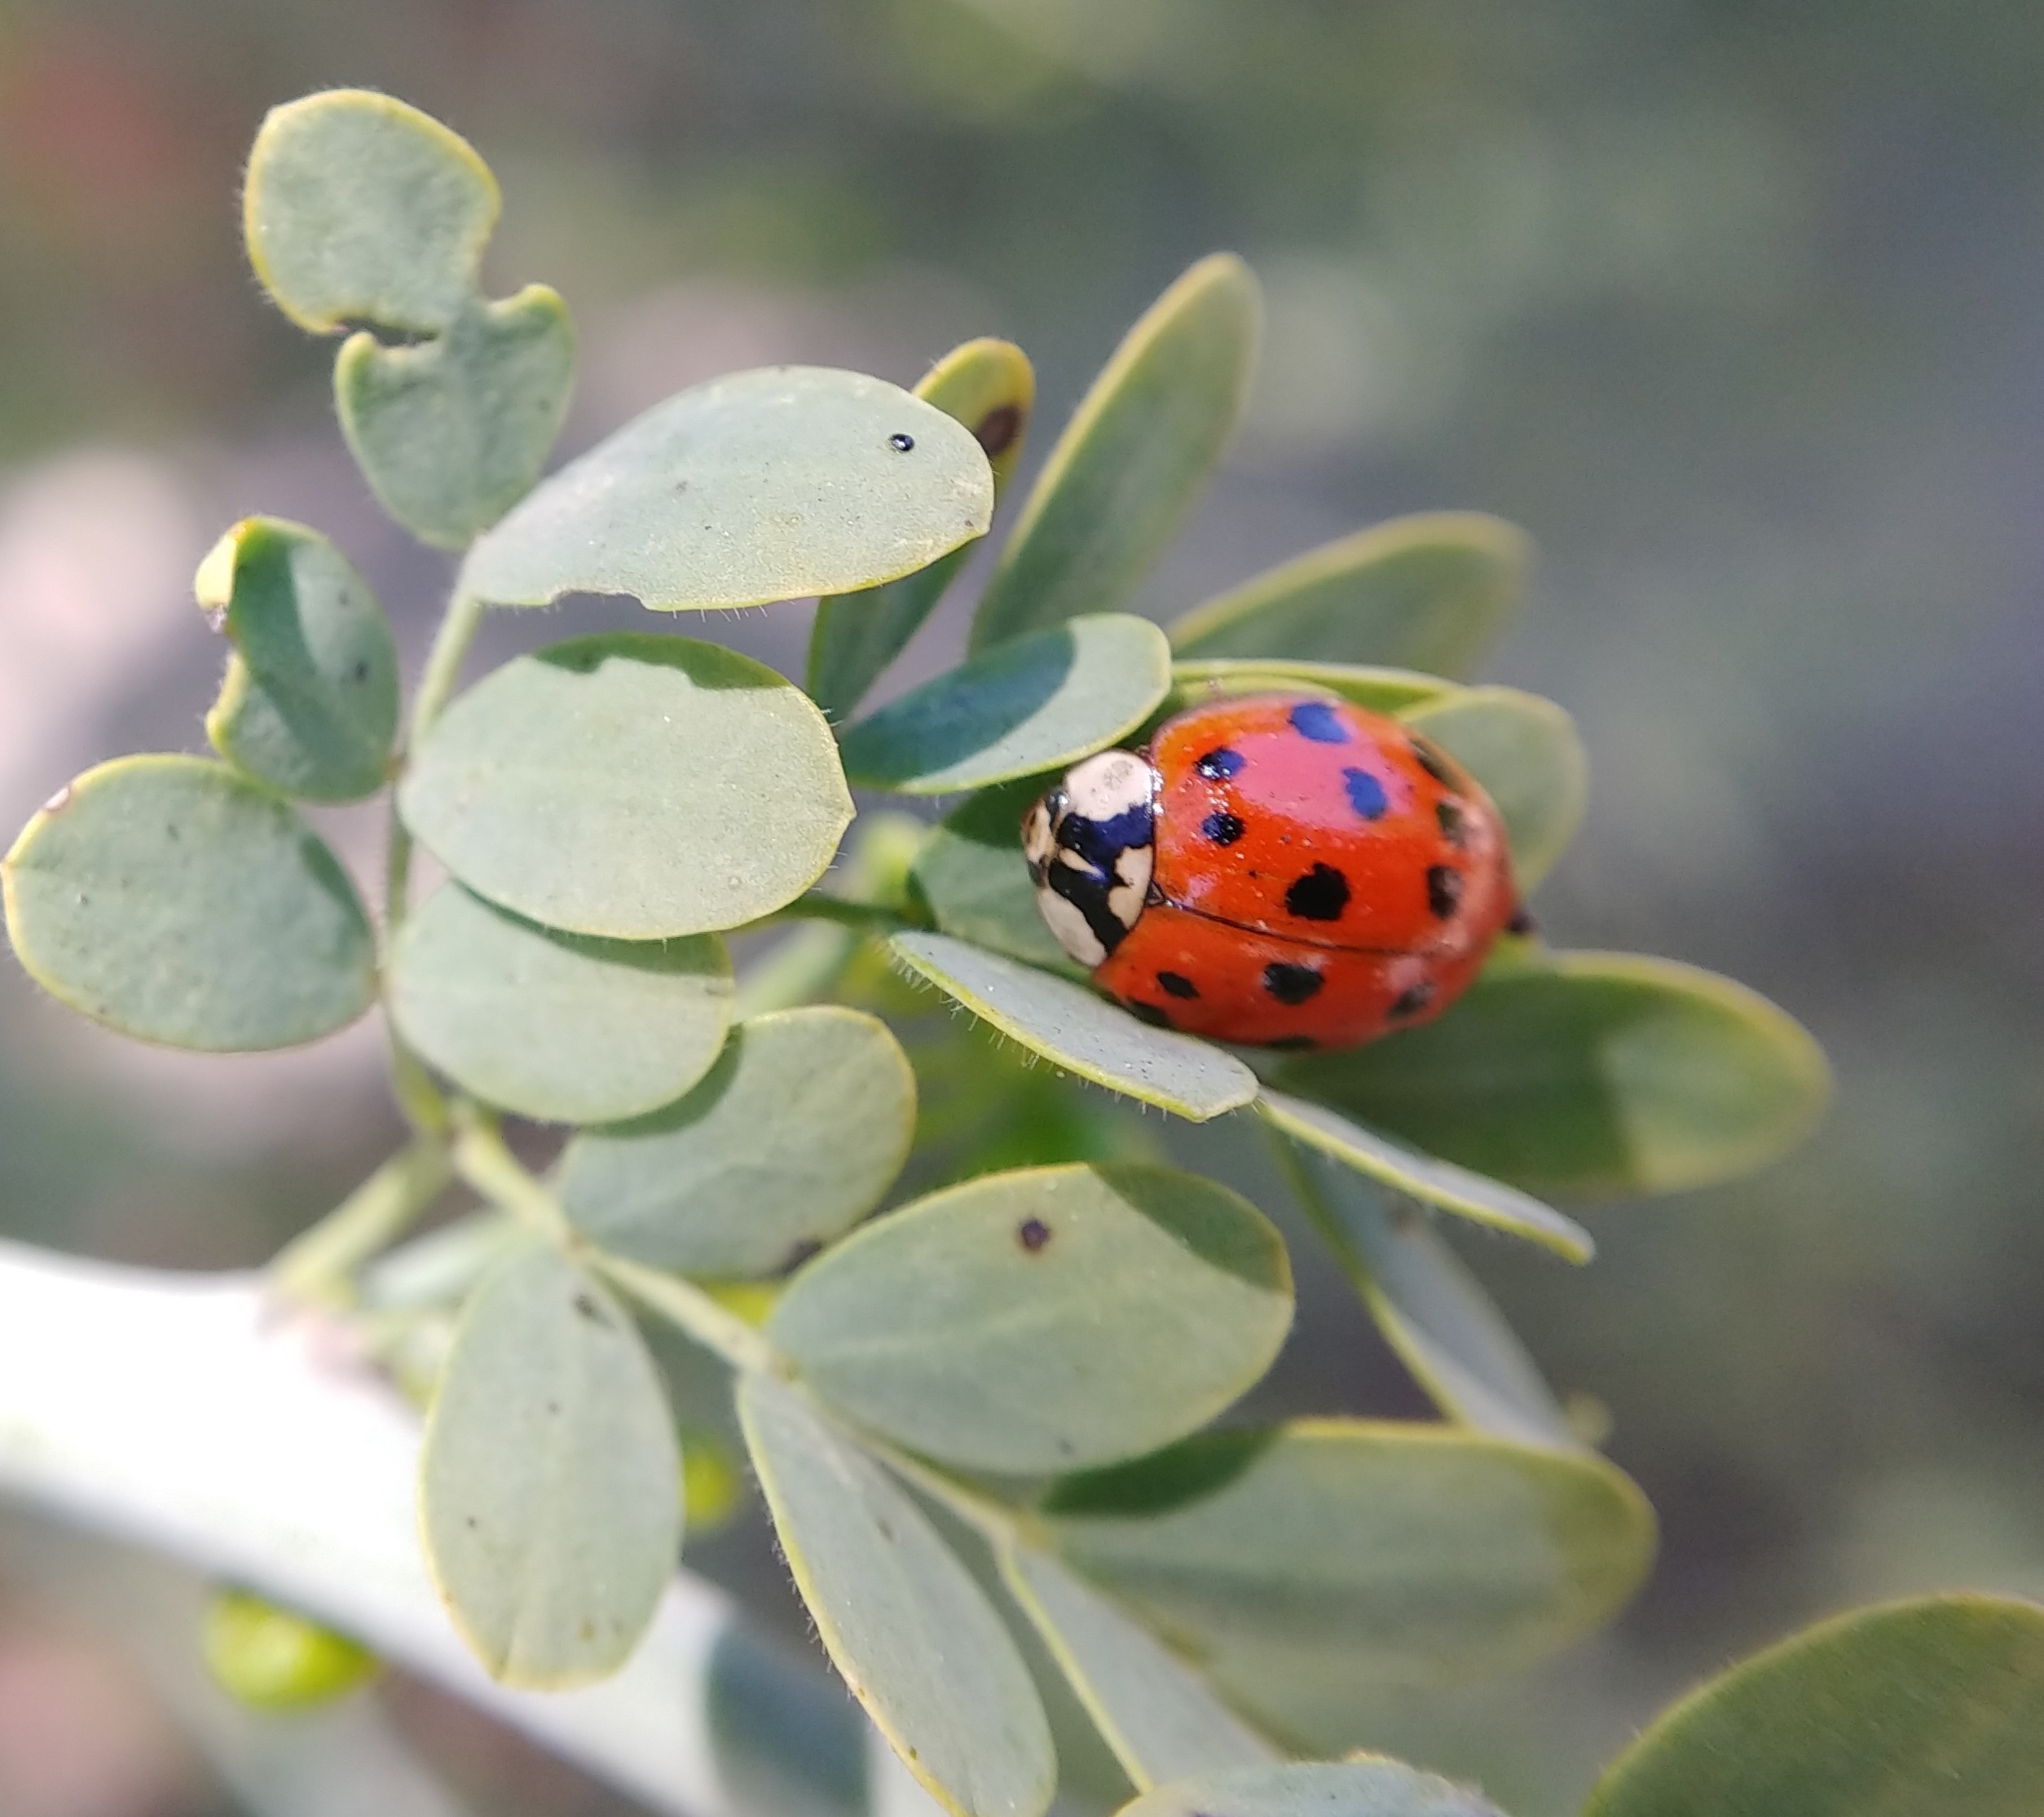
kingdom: Animalia
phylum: Arthropoda
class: Insecta
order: Coleoptera
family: Coccinellidae
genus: Harmonia
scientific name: Harmonia axyridis
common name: Harlequin ladybird
